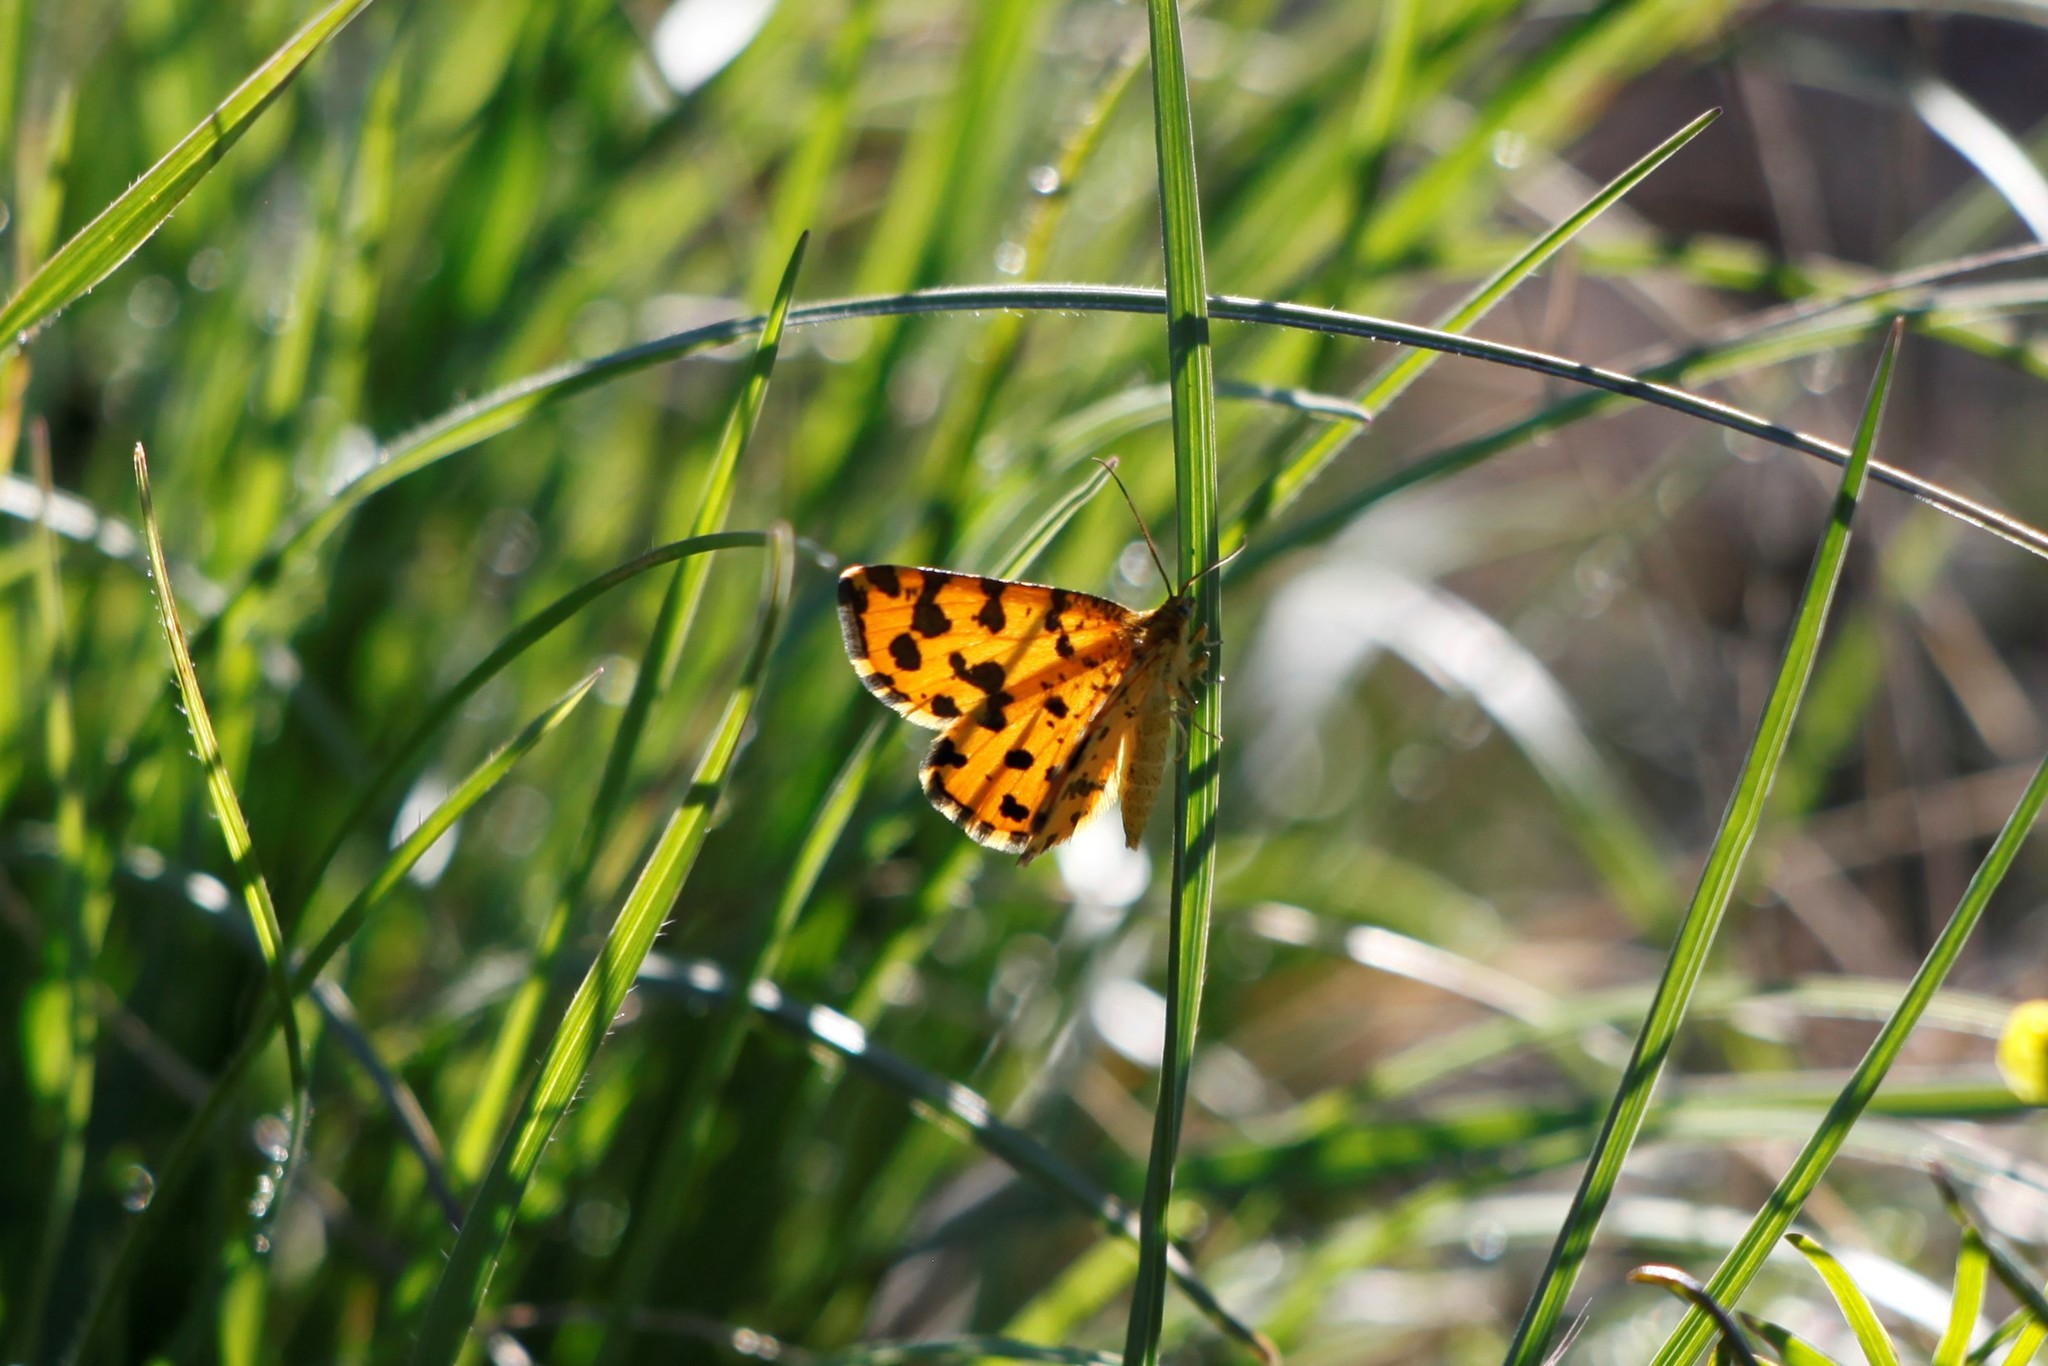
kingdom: Animalia
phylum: Arthropoda
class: Insecta
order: Lepidoptera
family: Geometridae
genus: Pseudopanthera
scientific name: Pseudopanthera macularia
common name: Speckled yellow
